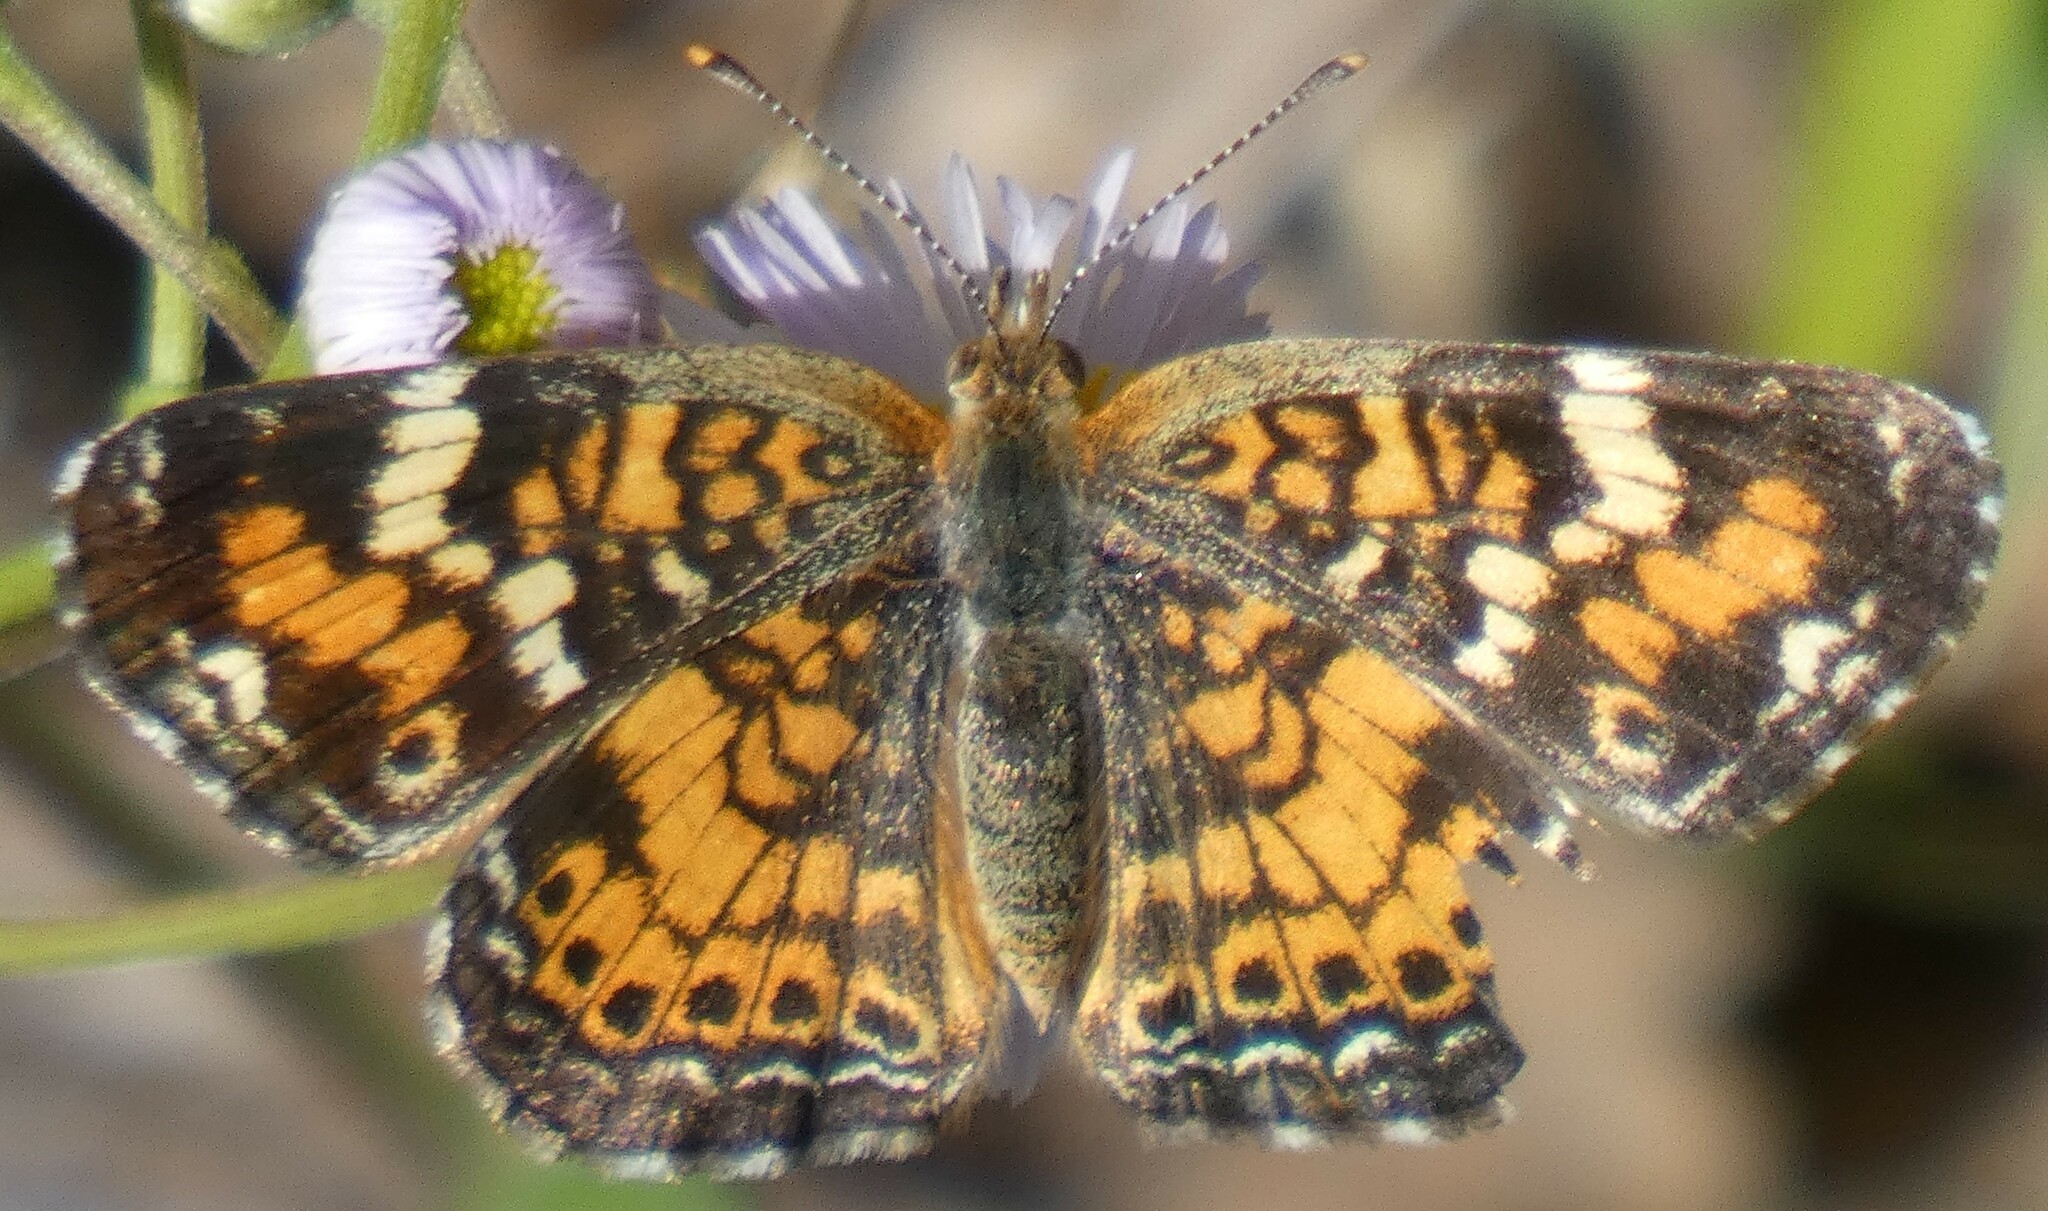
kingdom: Animalia
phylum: Arthropoda
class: Insecta
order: Lepidoptera
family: Nymphalidae
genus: Phyciodes
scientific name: Phyciodes phaon
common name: Phaon crescent
